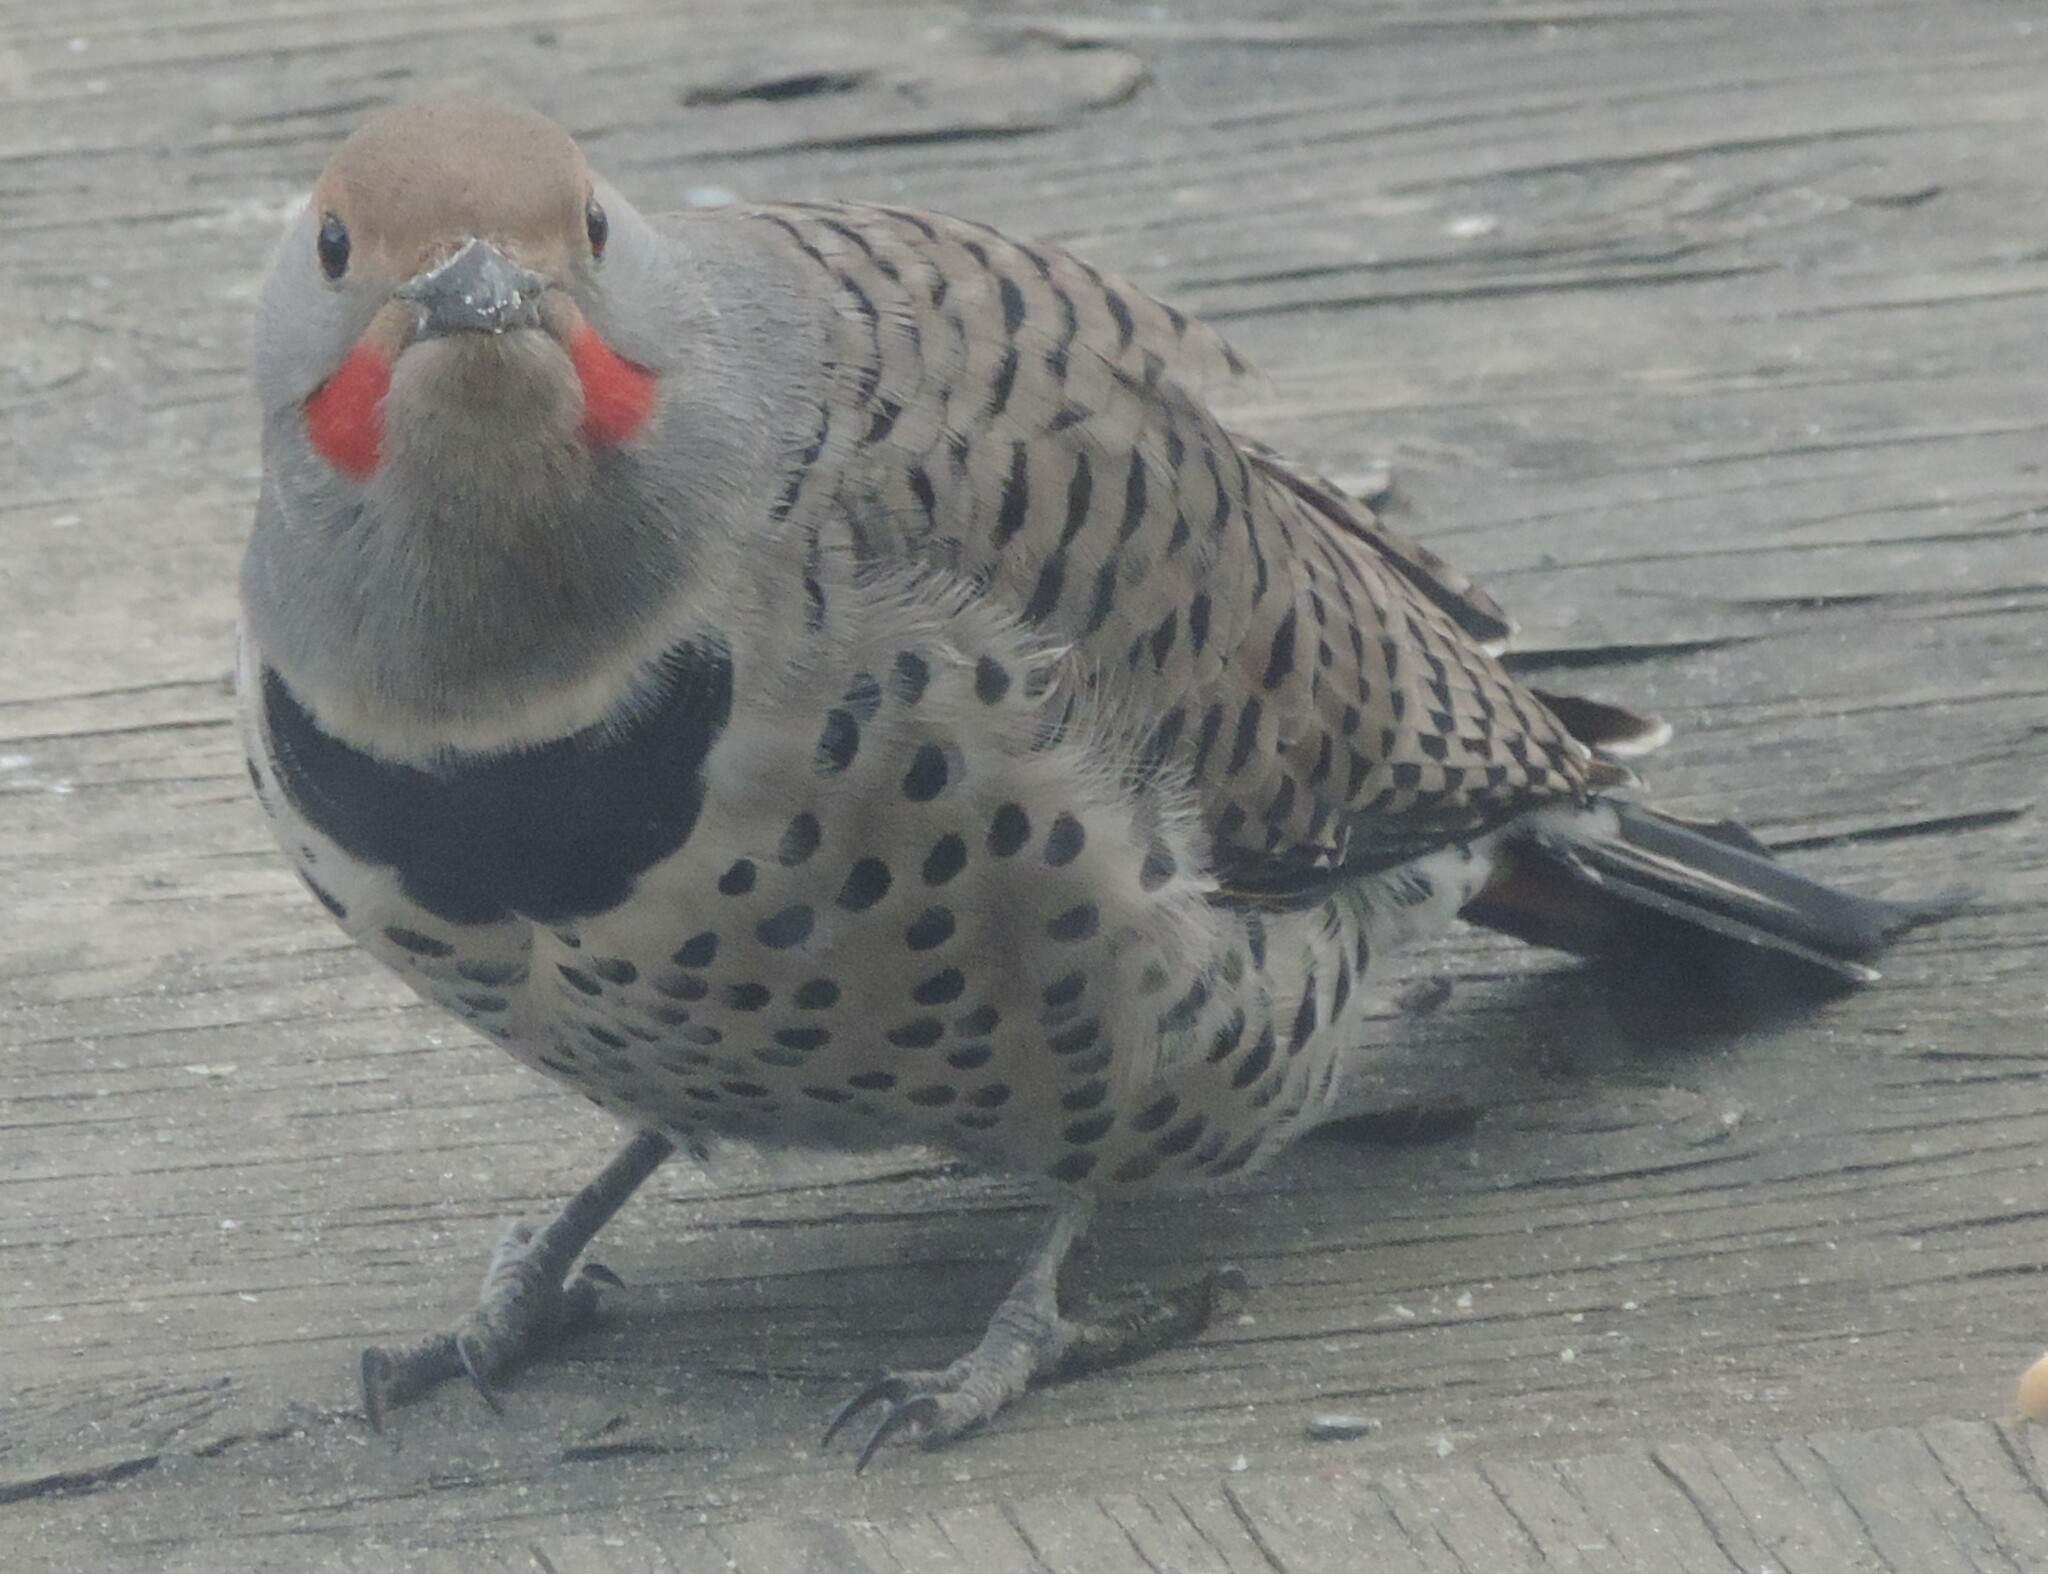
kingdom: Animalia
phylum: Chordata
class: Aves
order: Piciformes
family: Picidae
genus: Colaptes
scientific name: Colaptes
